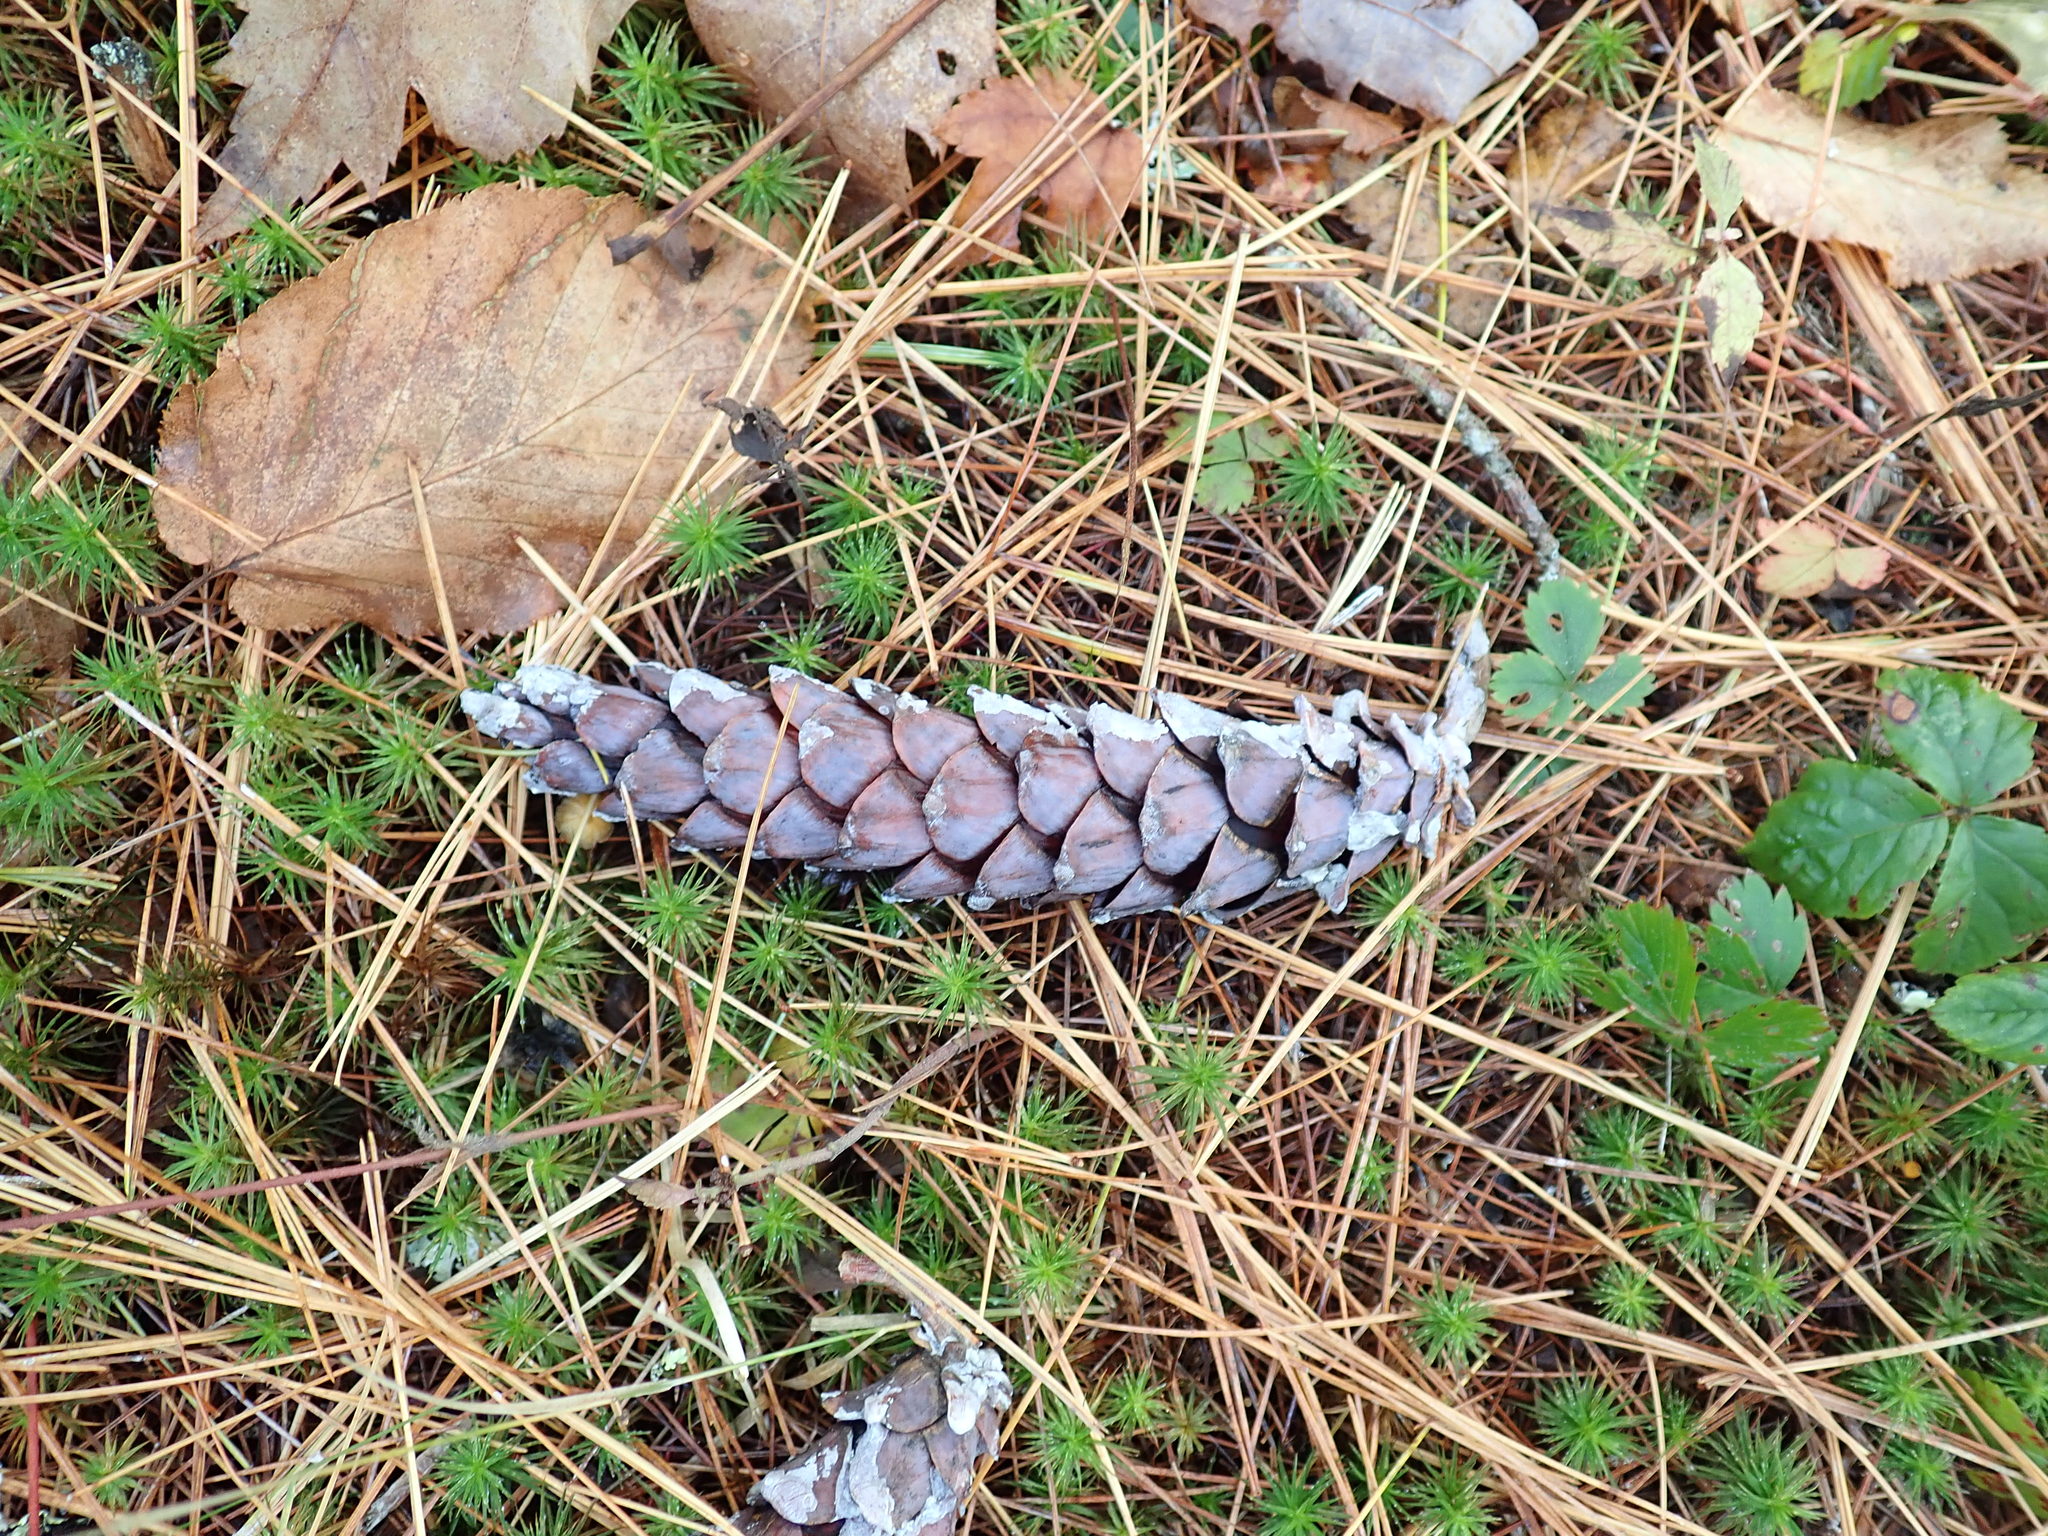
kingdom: Plantae
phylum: Tracheophyta
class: Pinopsida
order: Pinales
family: Pinaceae
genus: Pinus
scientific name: Pinus strobus
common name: Weymouth pine
